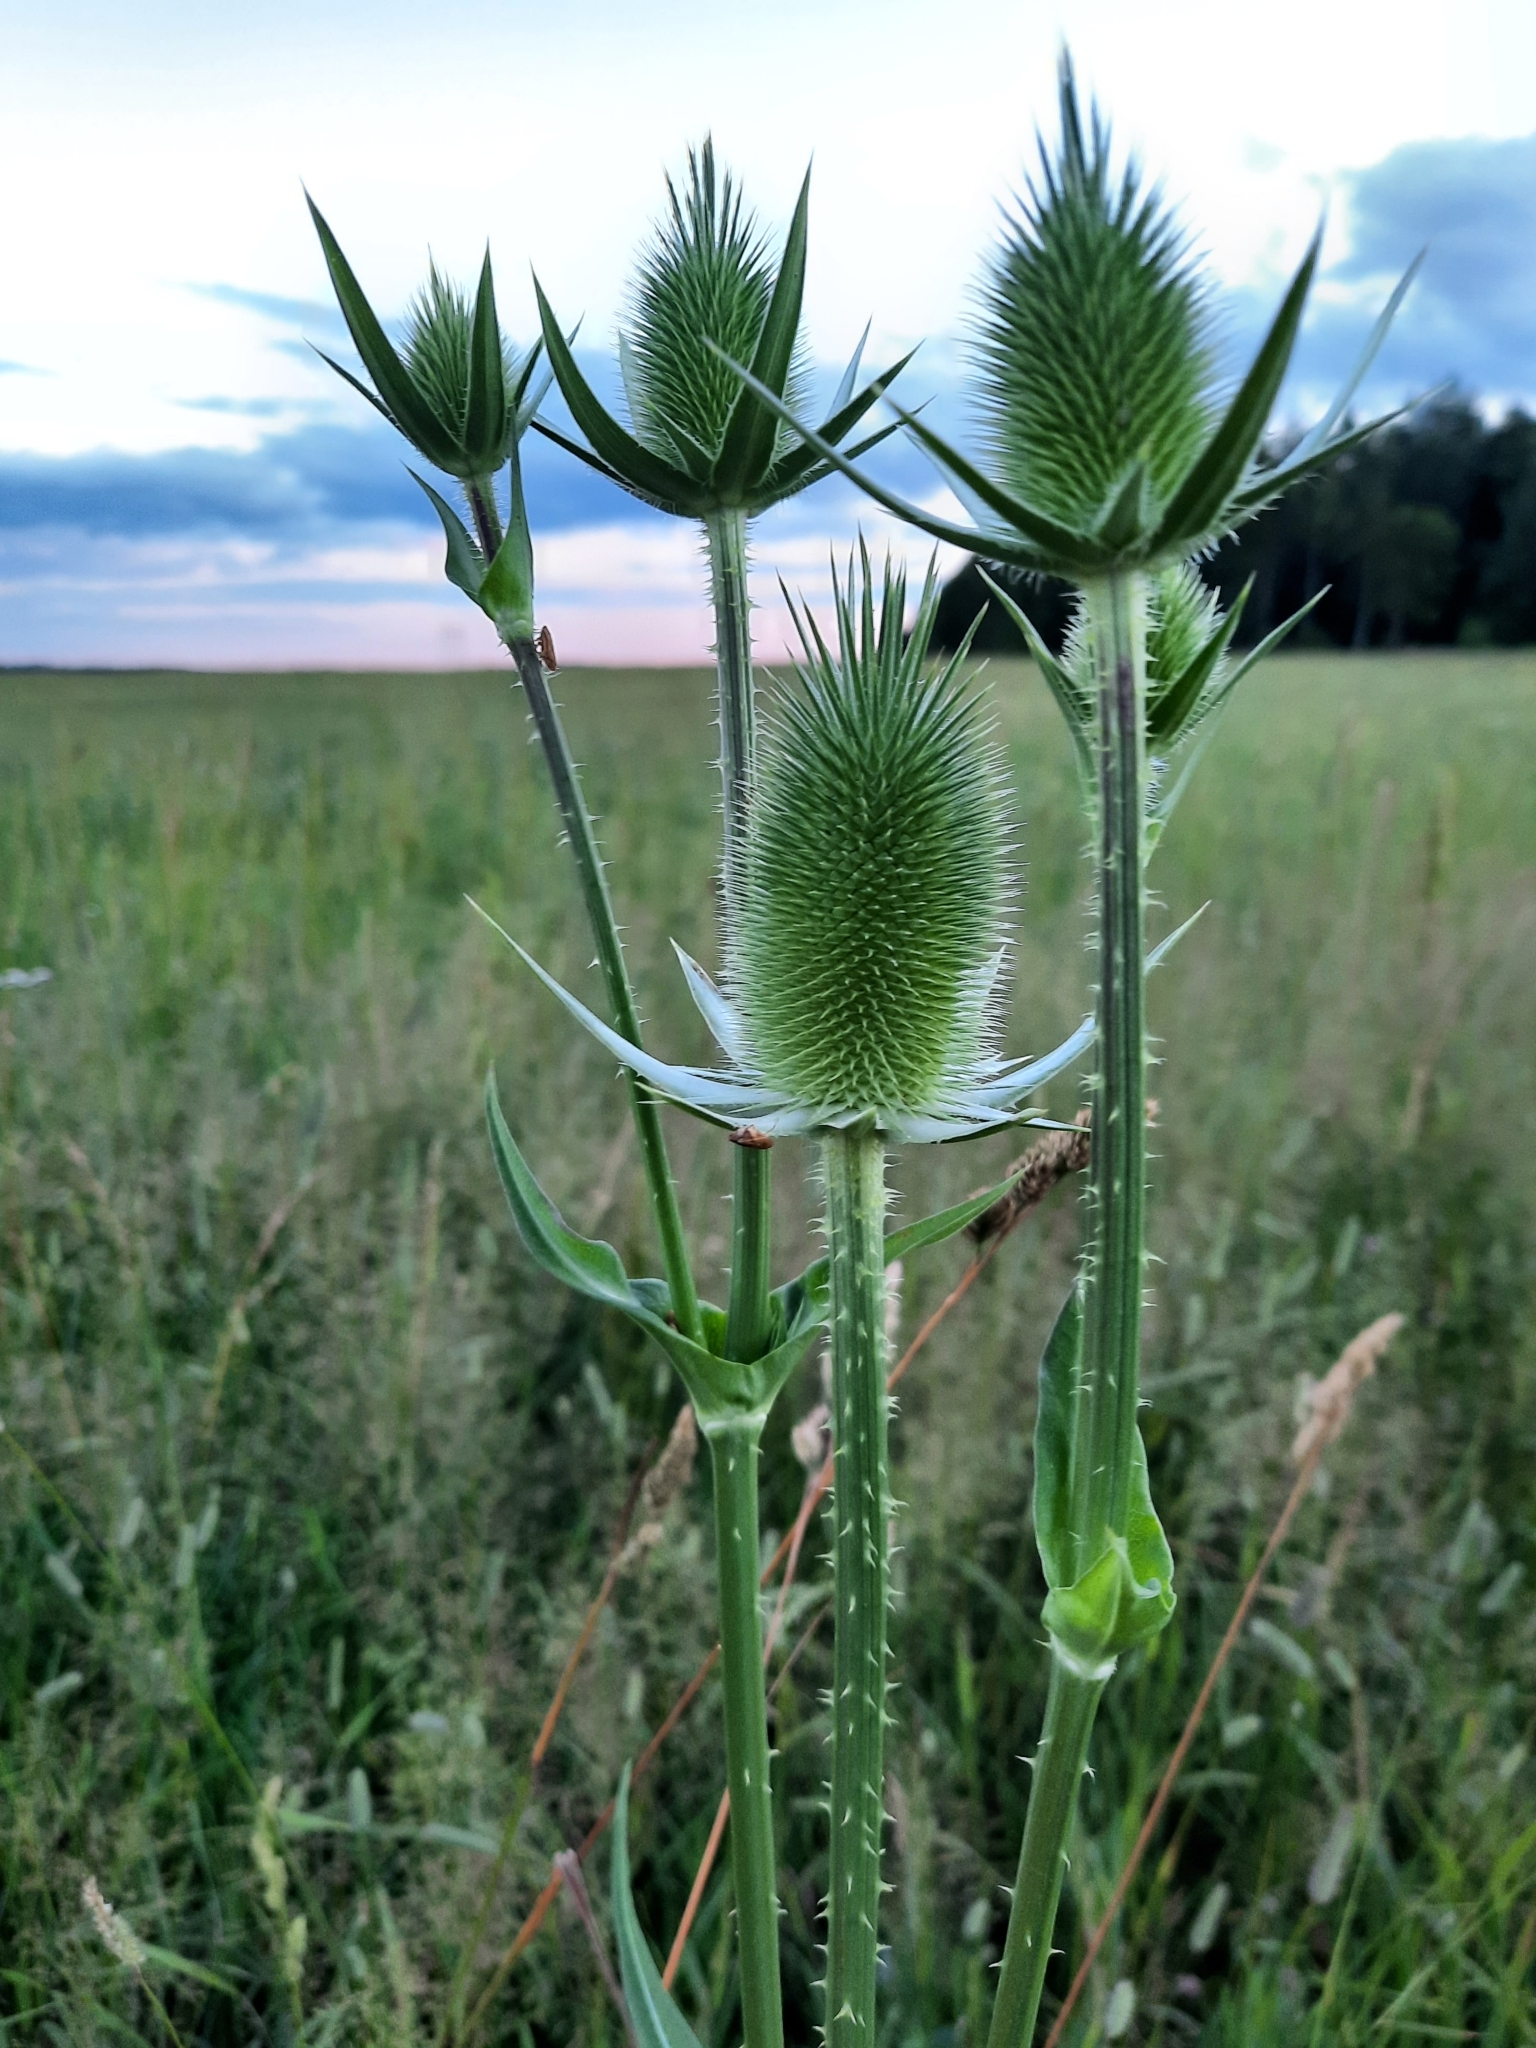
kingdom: Plantae
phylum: Tracheophyta
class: Magnoliopsida
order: Dipsacales
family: Caprifoliaceae
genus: Dipsacus
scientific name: Dipsacus laciniatus
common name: Cut-leaved teasel
